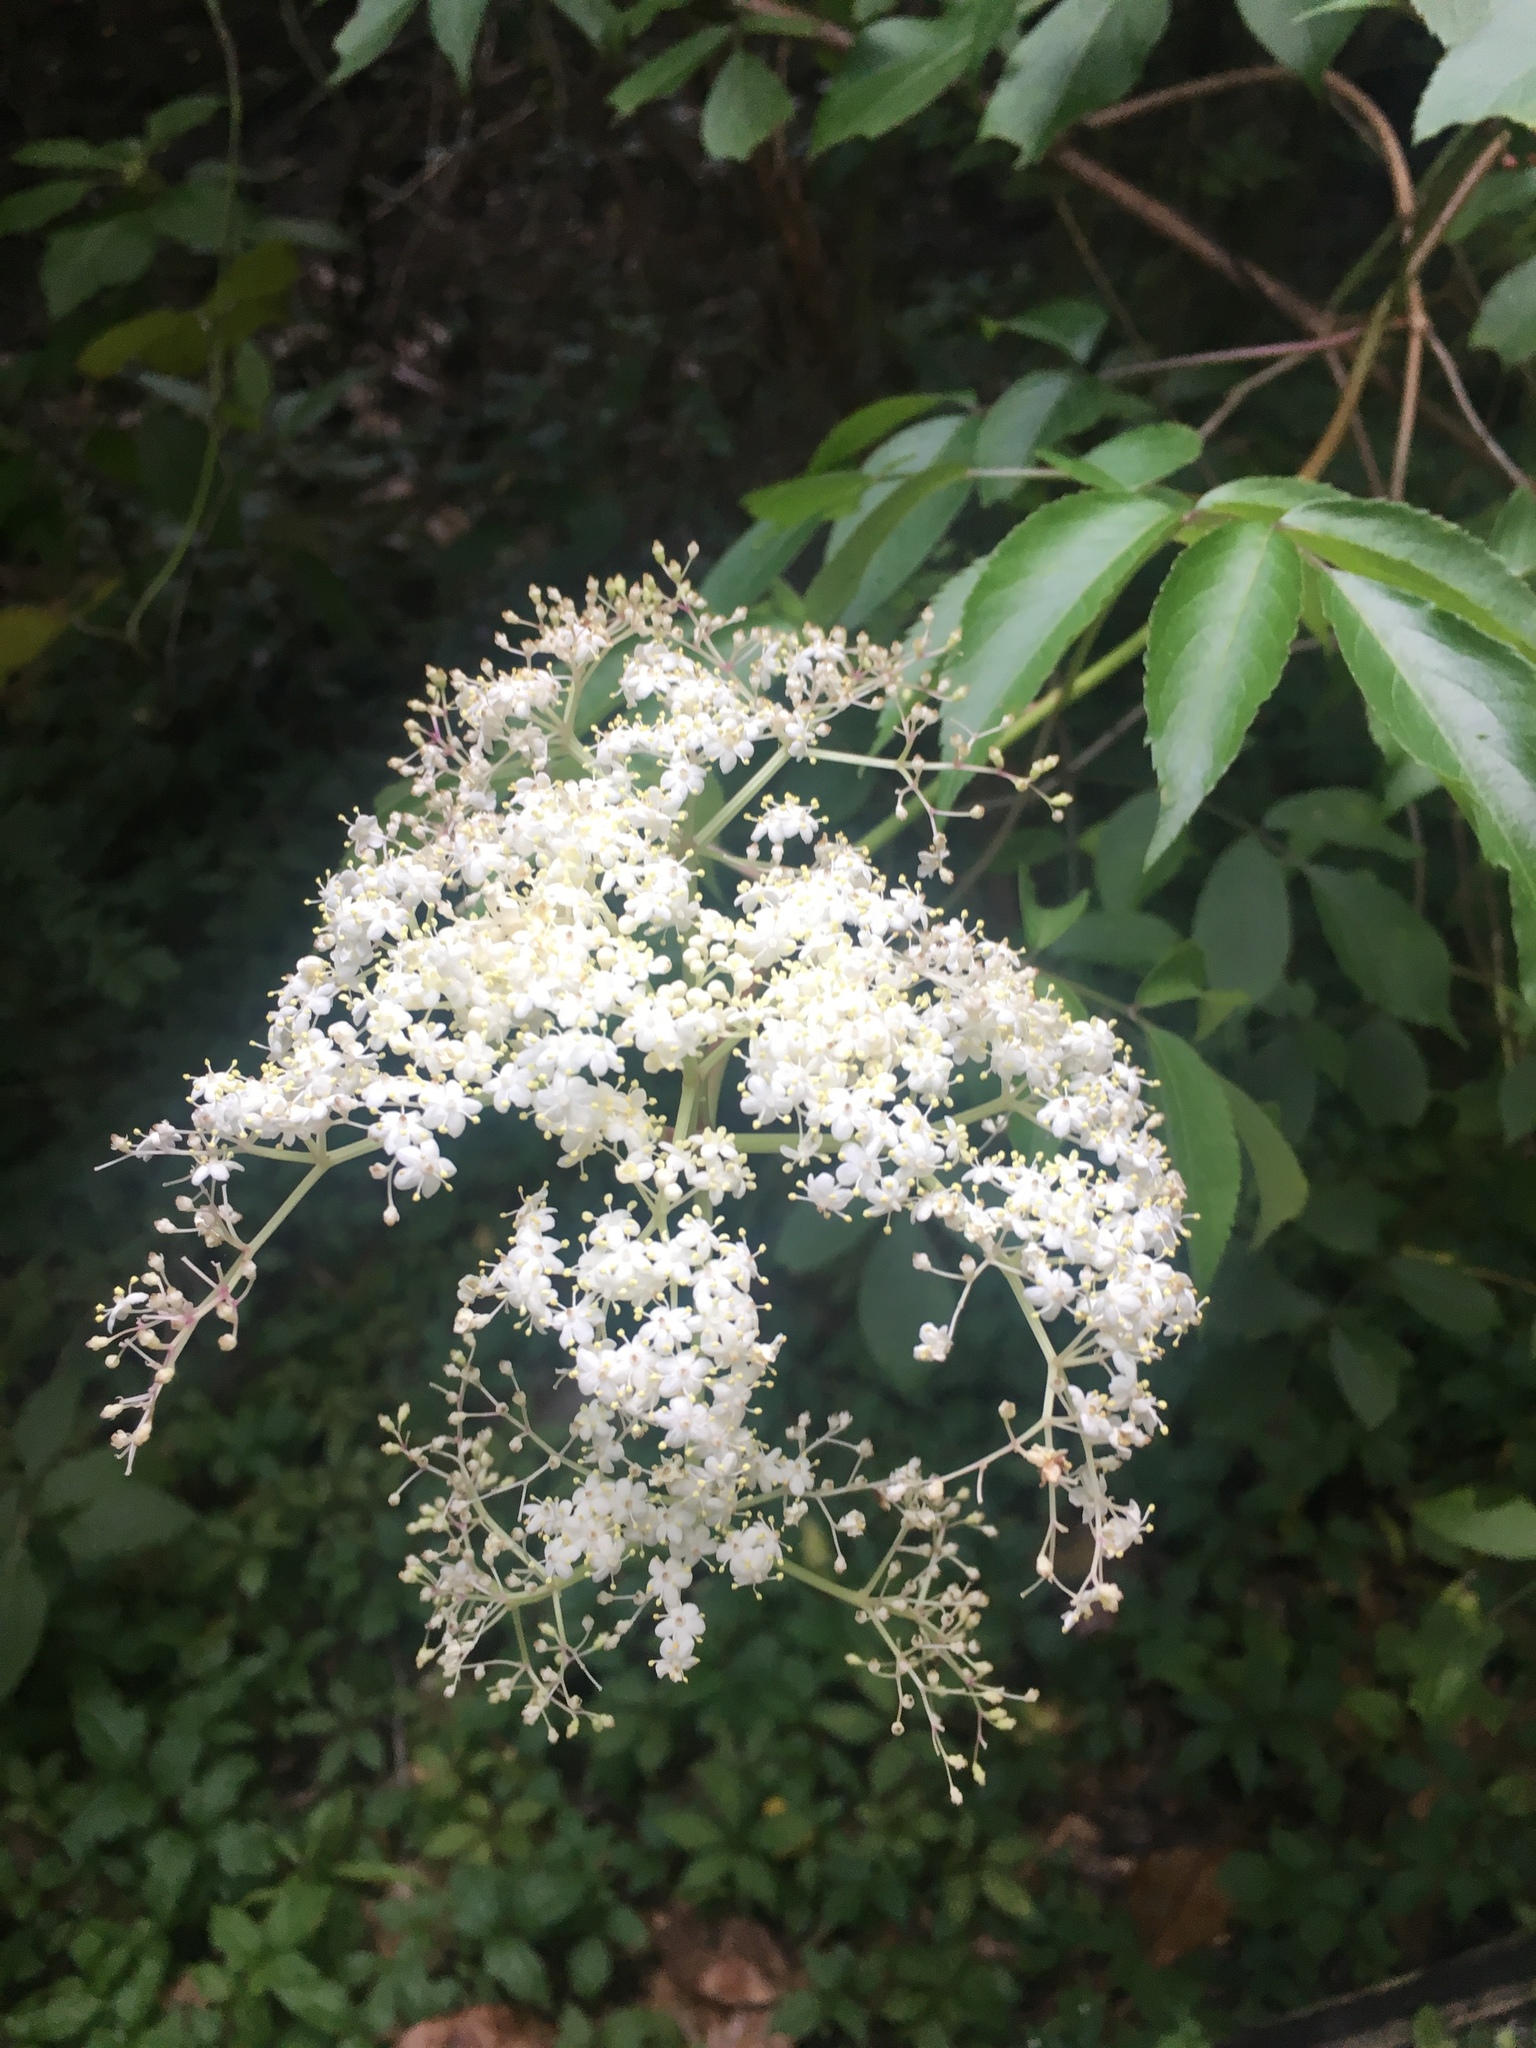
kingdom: Plantae
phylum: Tracheophyta
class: Magnoliopsida
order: Dipsacales
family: Viburnaceae
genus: Sambucus
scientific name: Sambucus canadensis
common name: American elder
